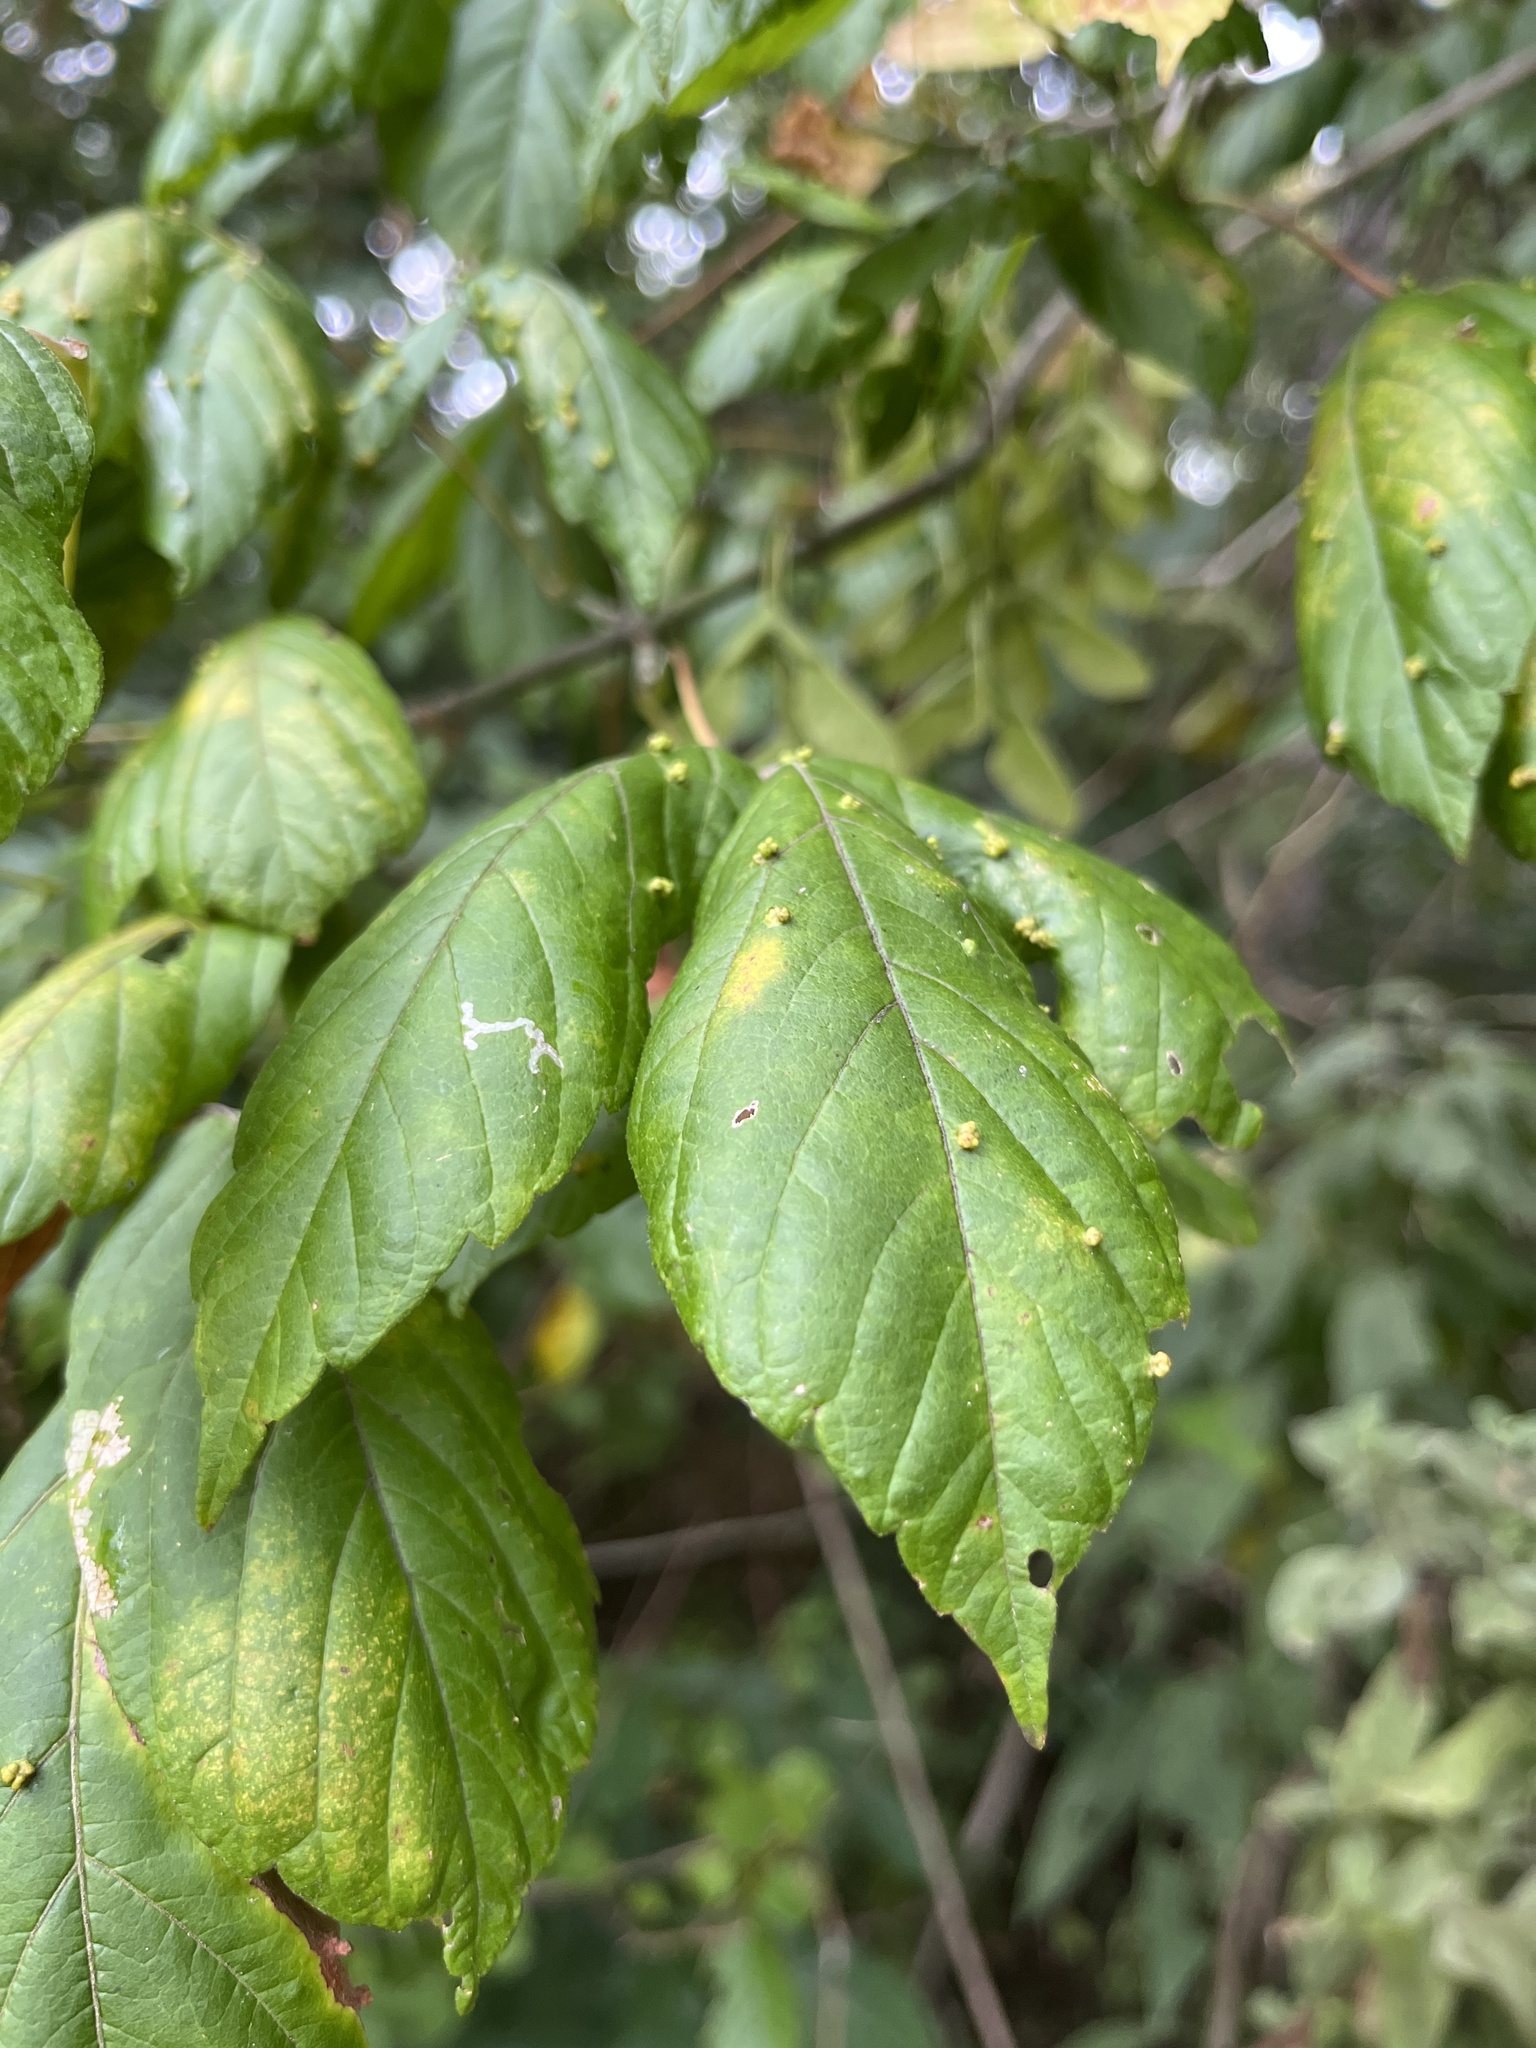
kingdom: Animalia
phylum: Arthropoda
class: Arachnida
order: Trombidiformes
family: Eriophyidae
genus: Aceria
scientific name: Aceria
